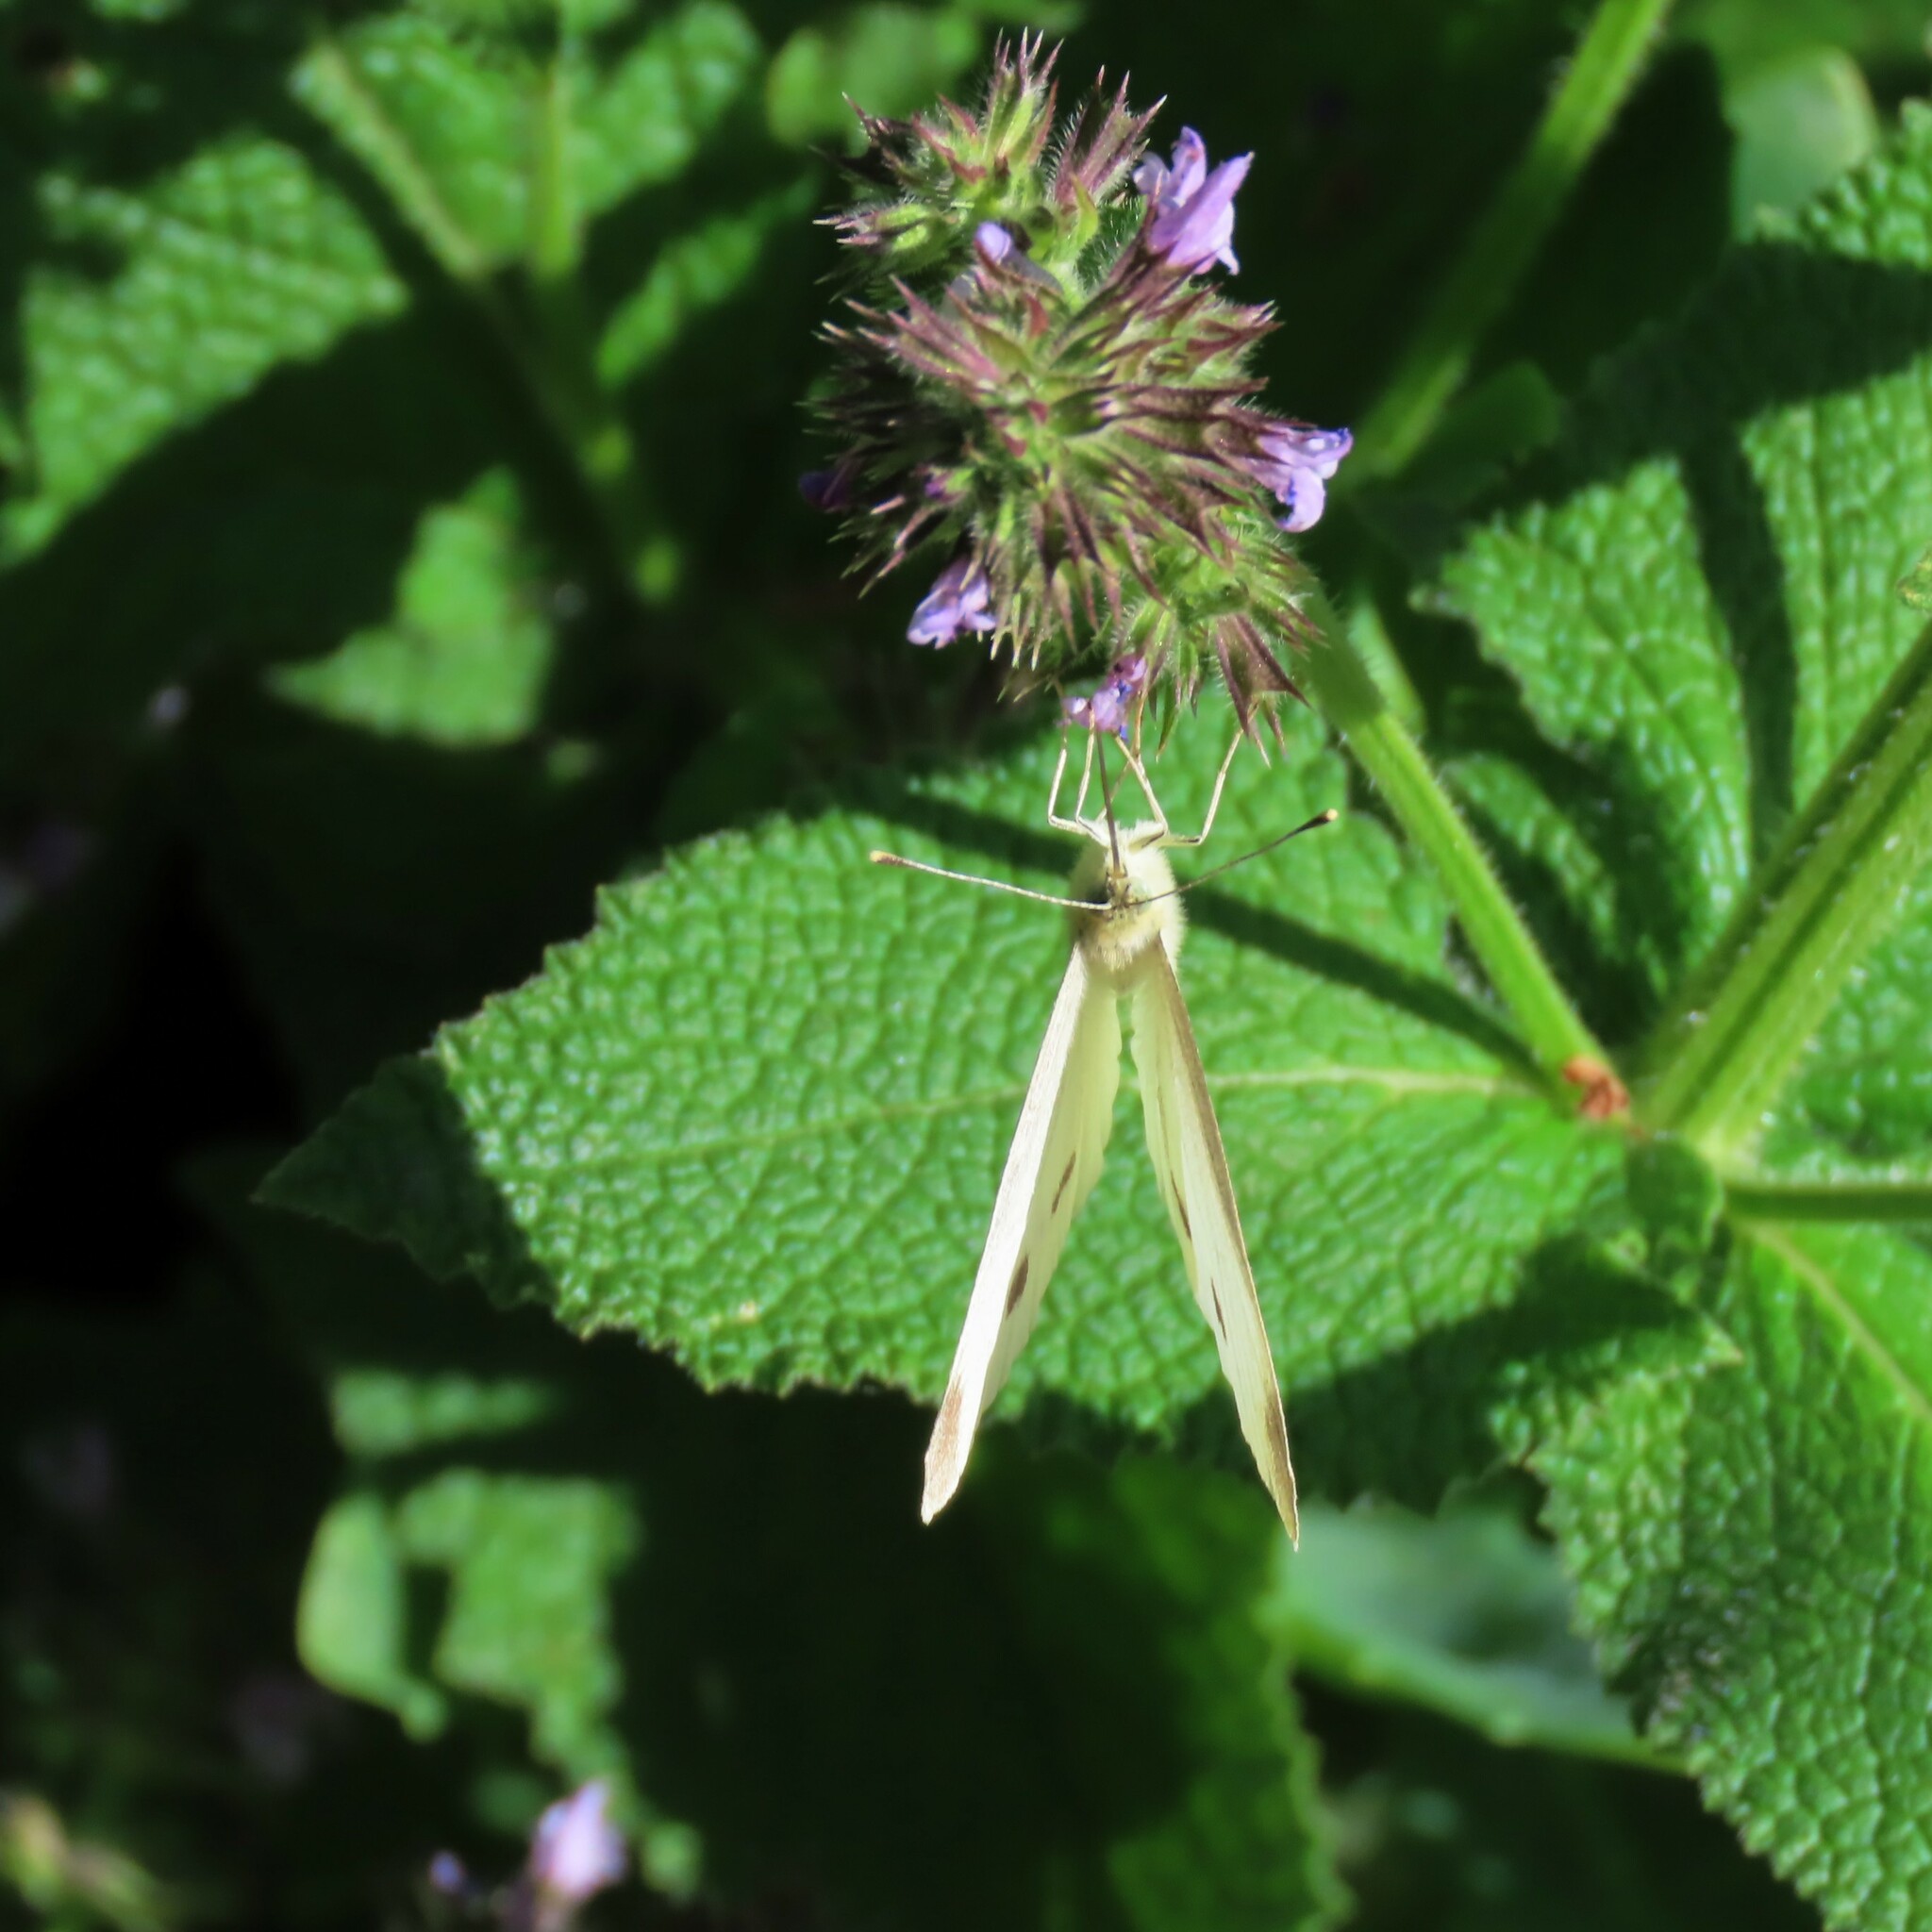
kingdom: Animalia
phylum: Arthropoda
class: Insecta
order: Lepidoptera
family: Pieridae
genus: Pieris
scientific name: Pieris rapae
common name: Small white
